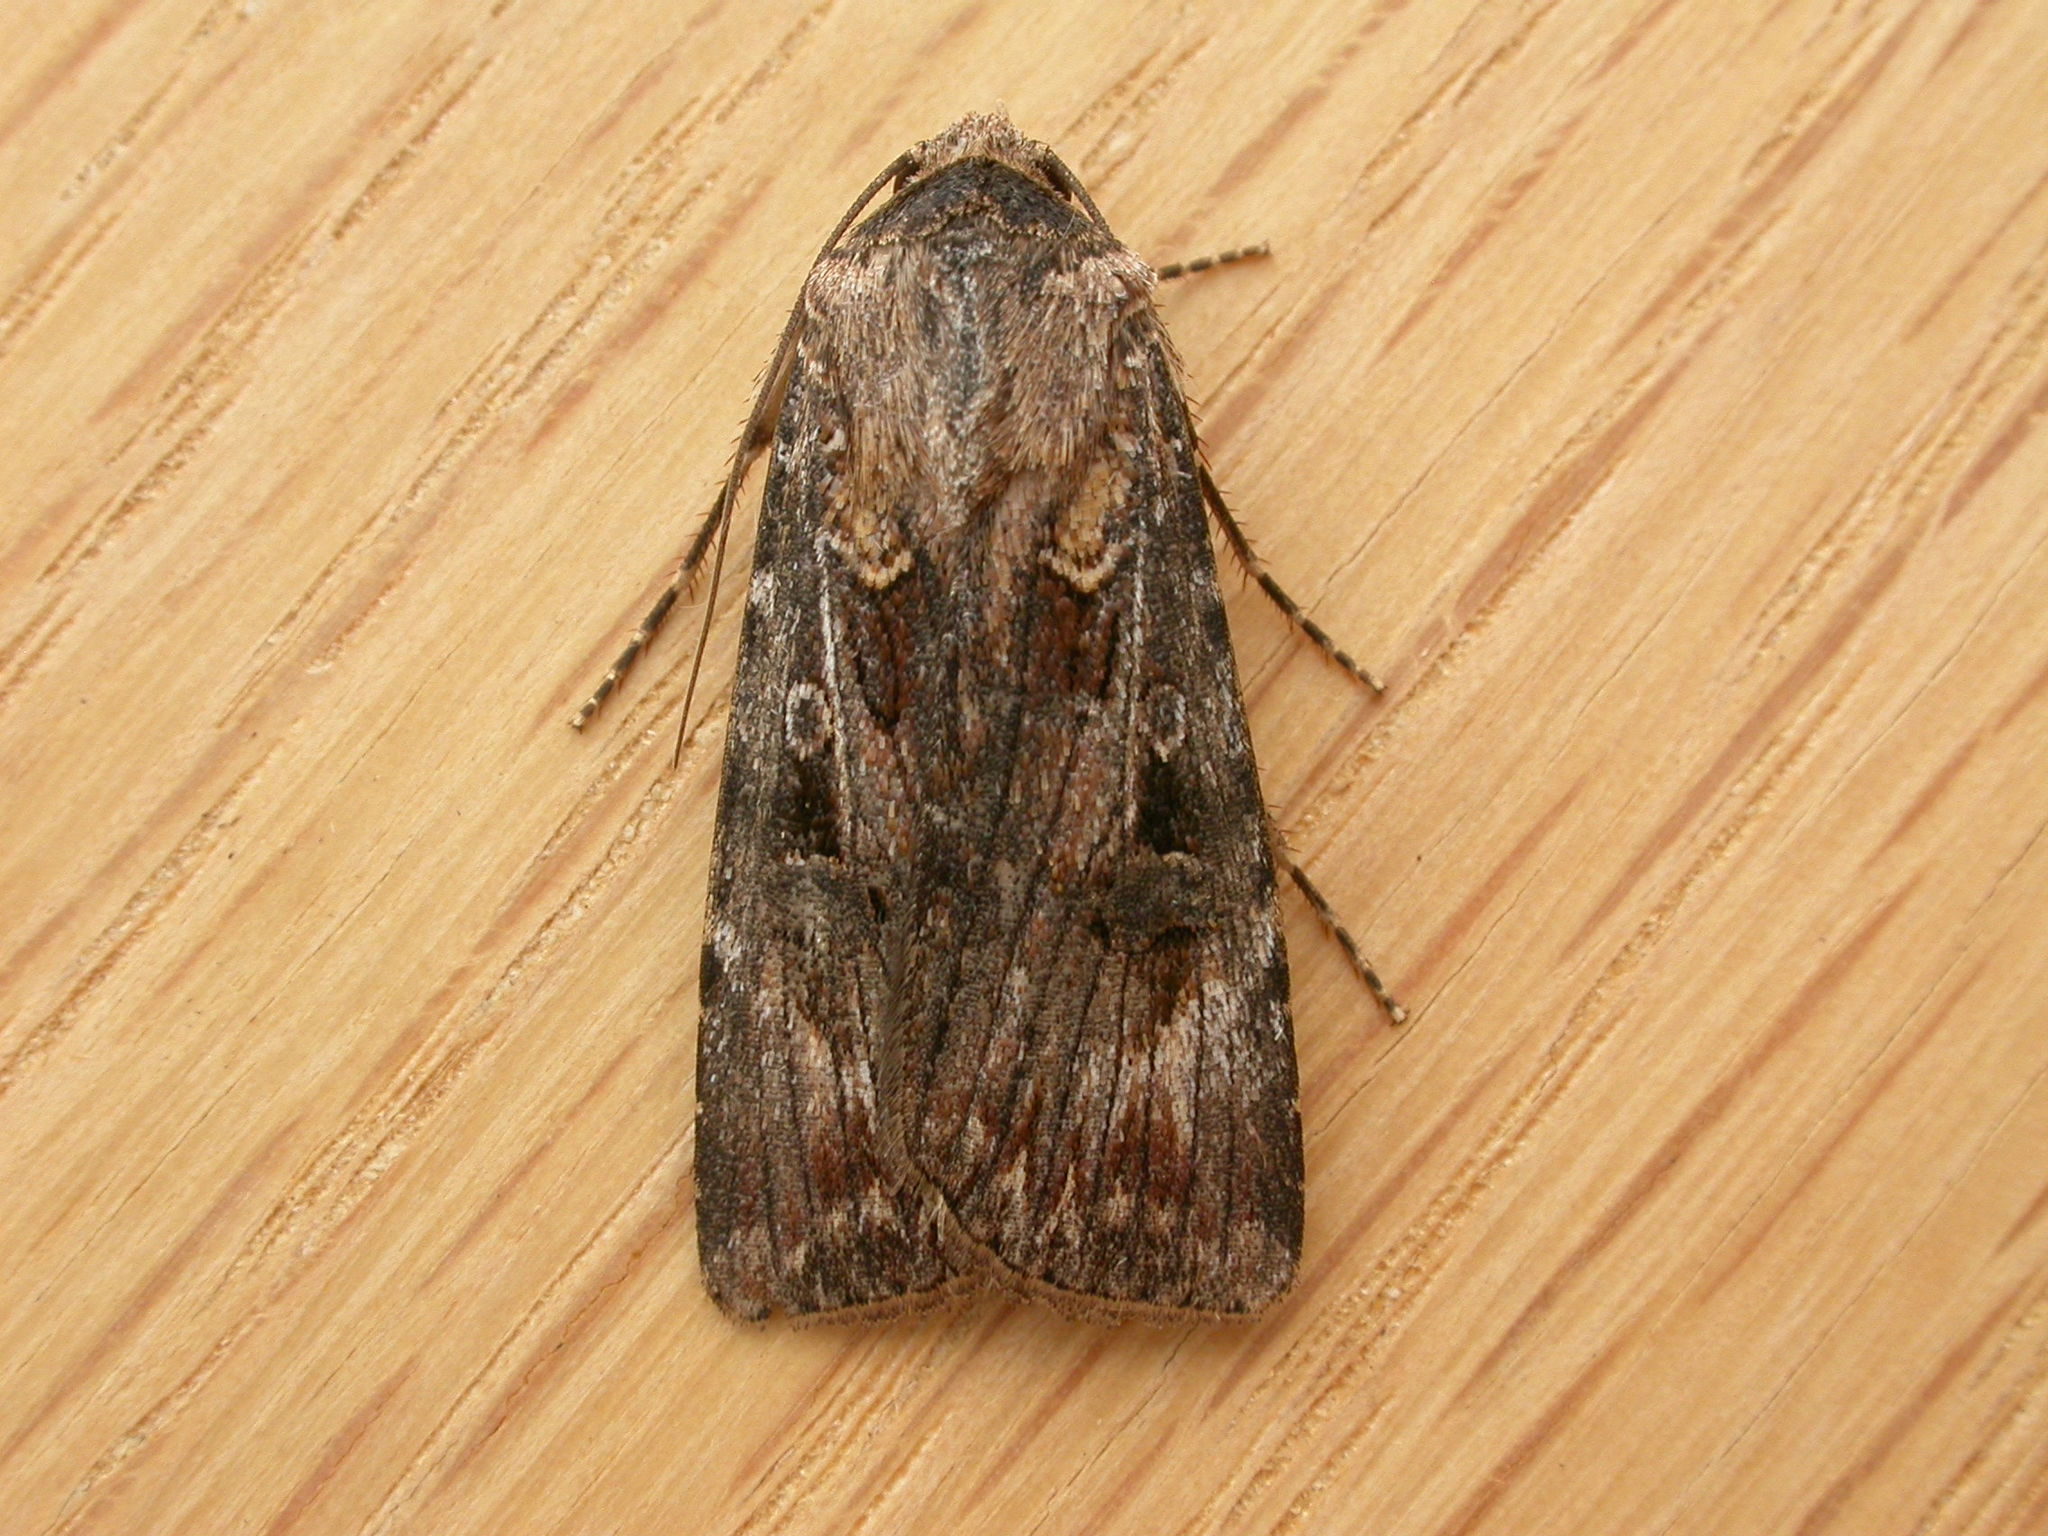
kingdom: Animalia
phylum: Arthropoda
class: Insecta
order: Lepidoptera
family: Noctuidae
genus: Agrotis
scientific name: Agrotis munda
